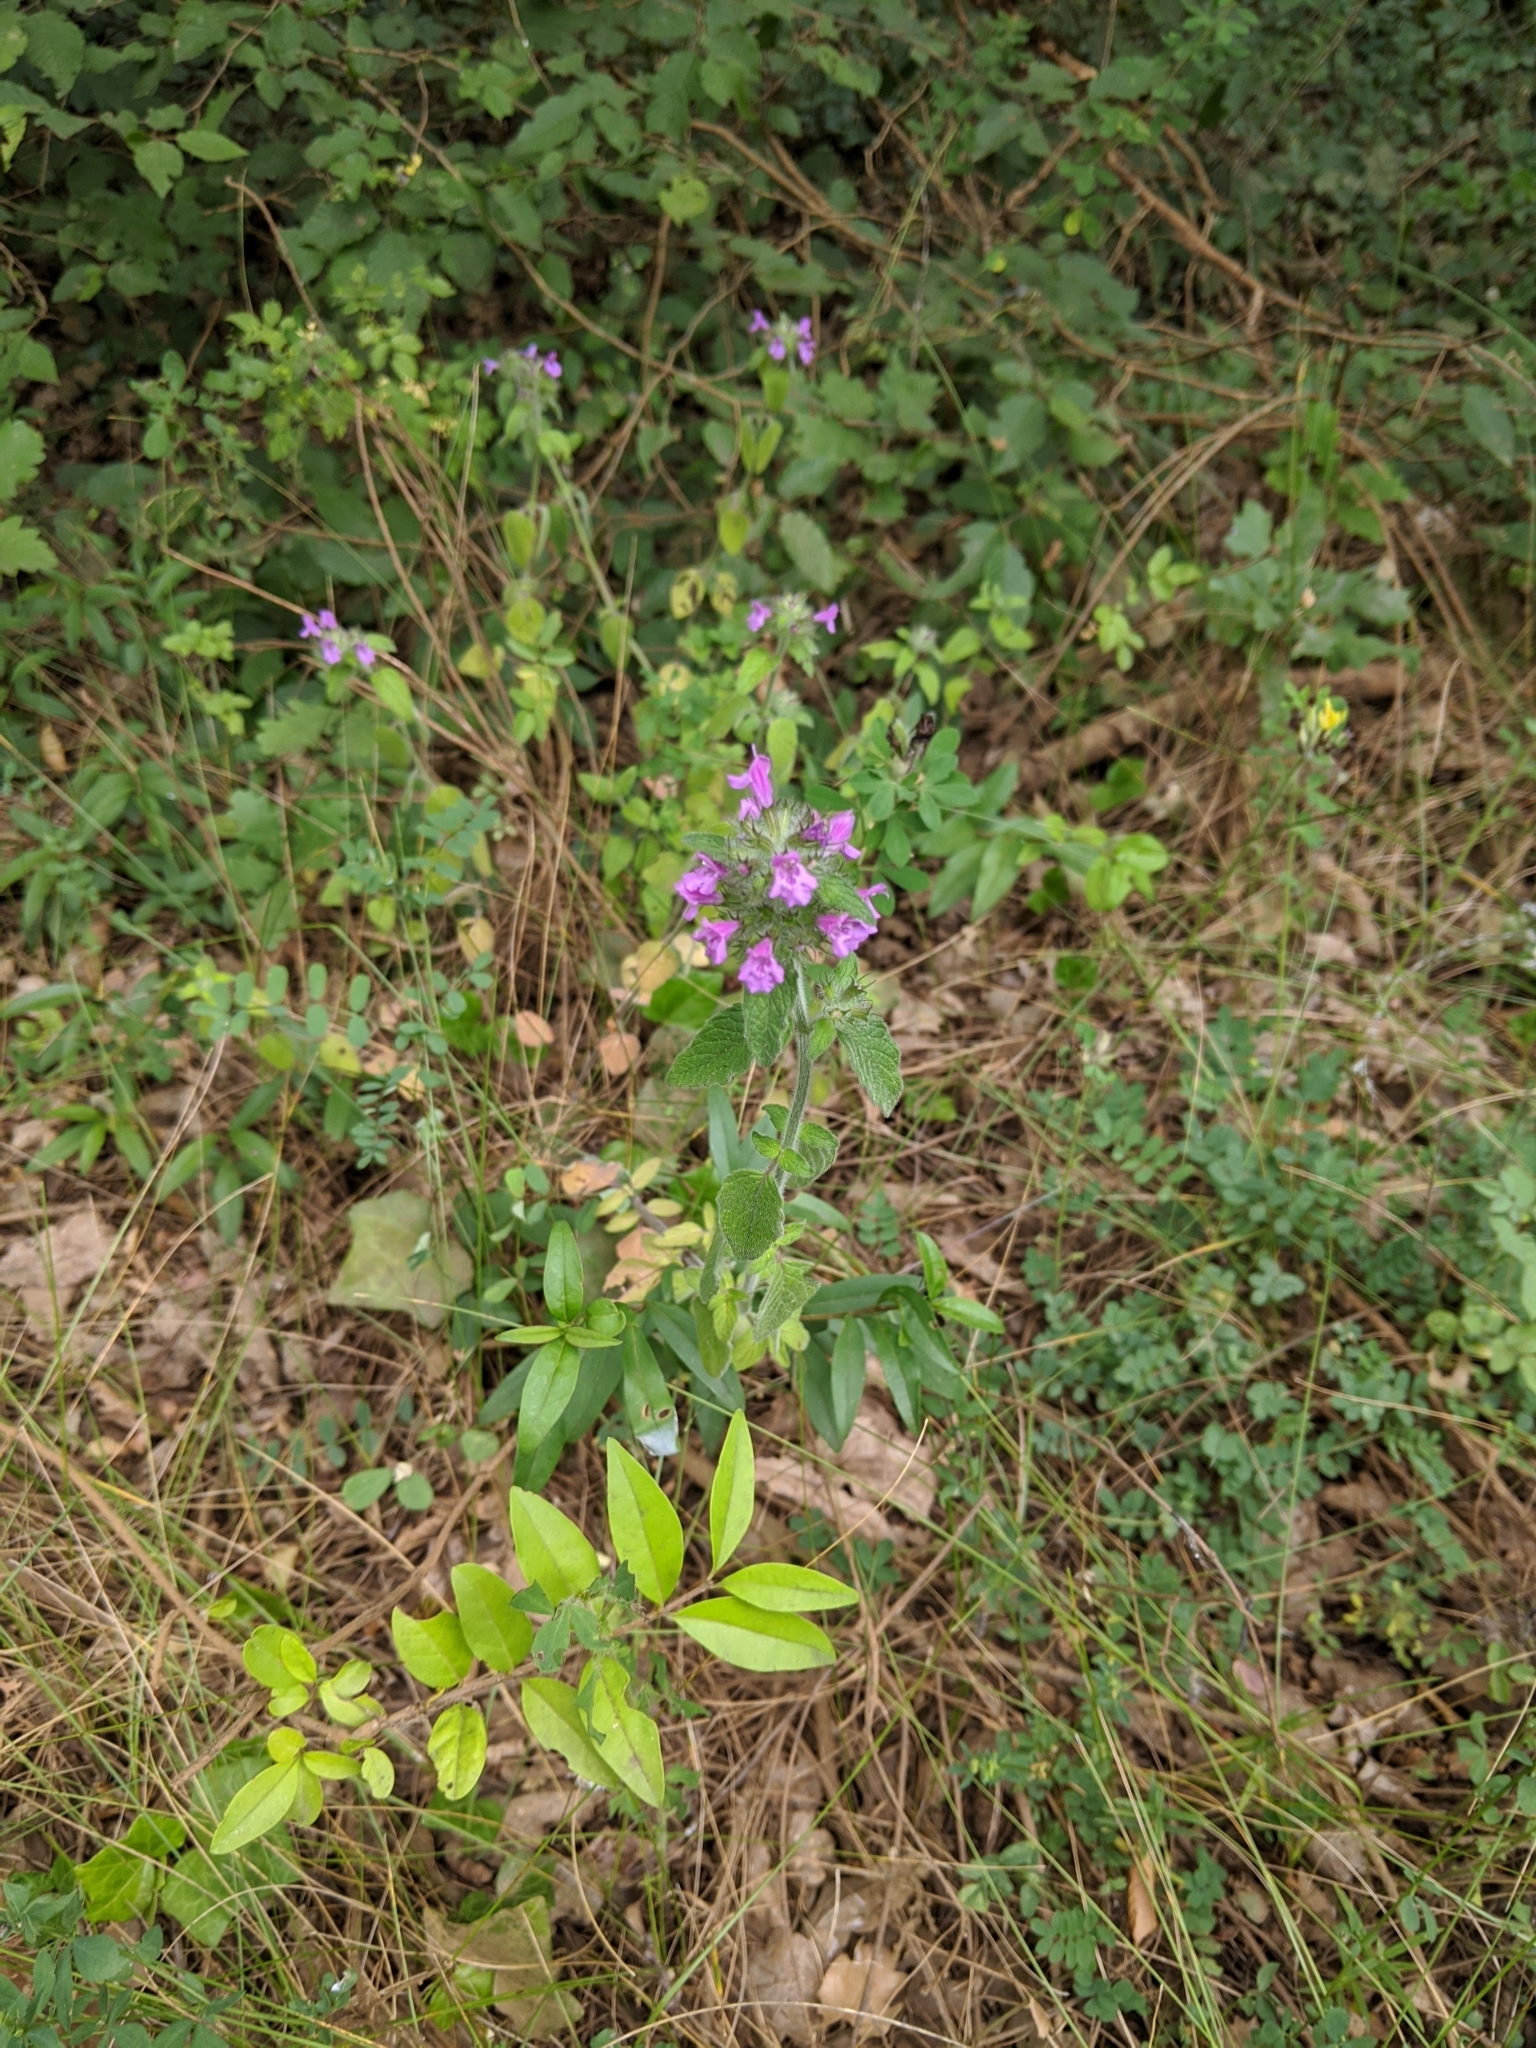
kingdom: Plantae
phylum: Tracheophyta
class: Magnoliopsida
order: Lamiales
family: Lamiaceae
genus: Clinopodium
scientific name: Clinopodium vulgare
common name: Wild basil
